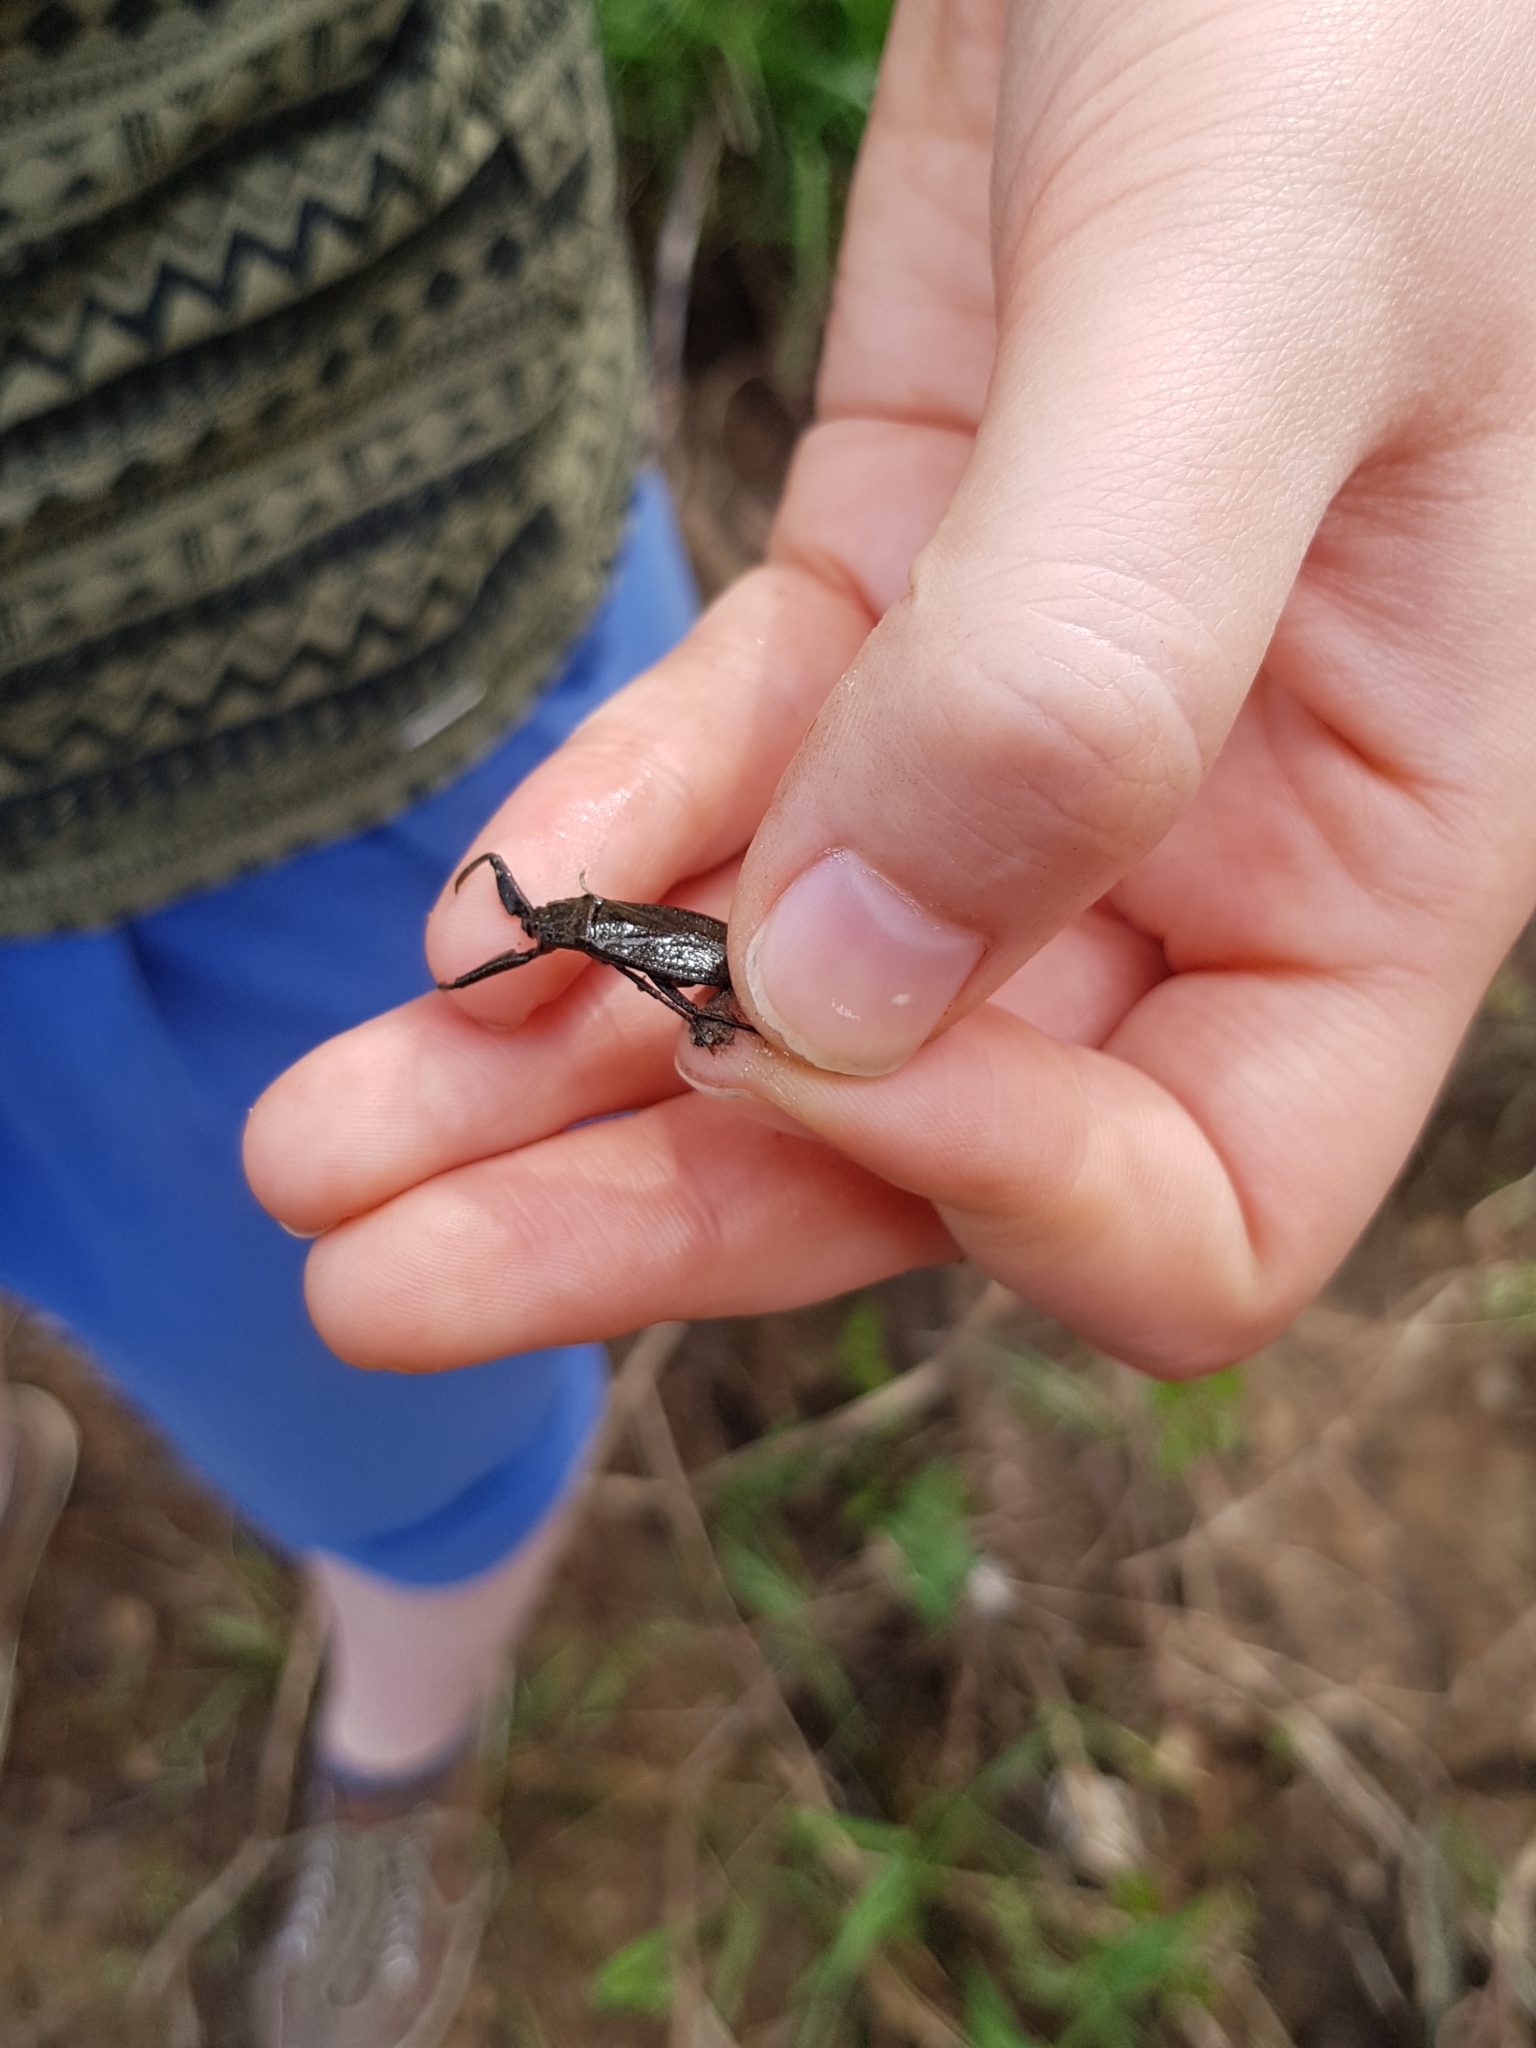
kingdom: Animalia
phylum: Arthropoda
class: Insecta
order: Hemiptera
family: Nepidae
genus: Nepa
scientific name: Nepa cinerea
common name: Water scorpion
